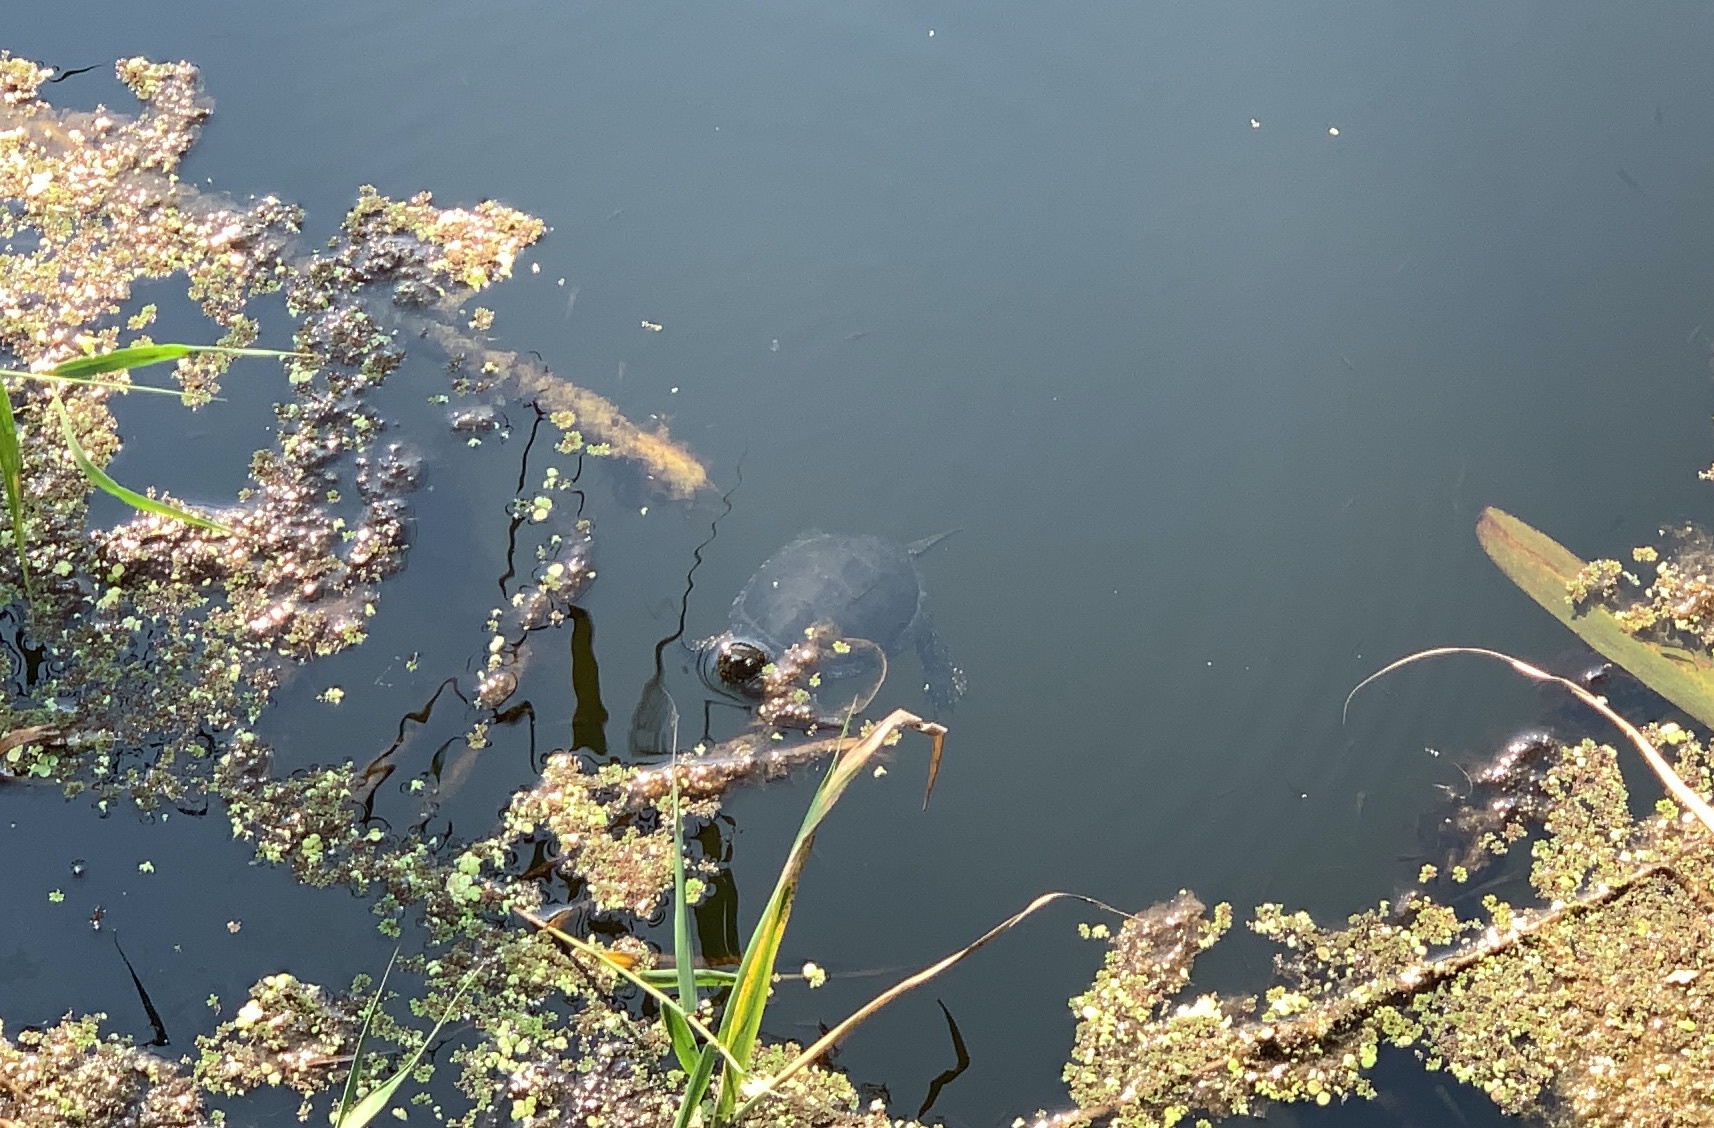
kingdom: Animalia
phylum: Chordata
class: Testudines
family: Emydidae
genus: Emys
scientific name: Emys orbicularis
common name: European pond turtle
